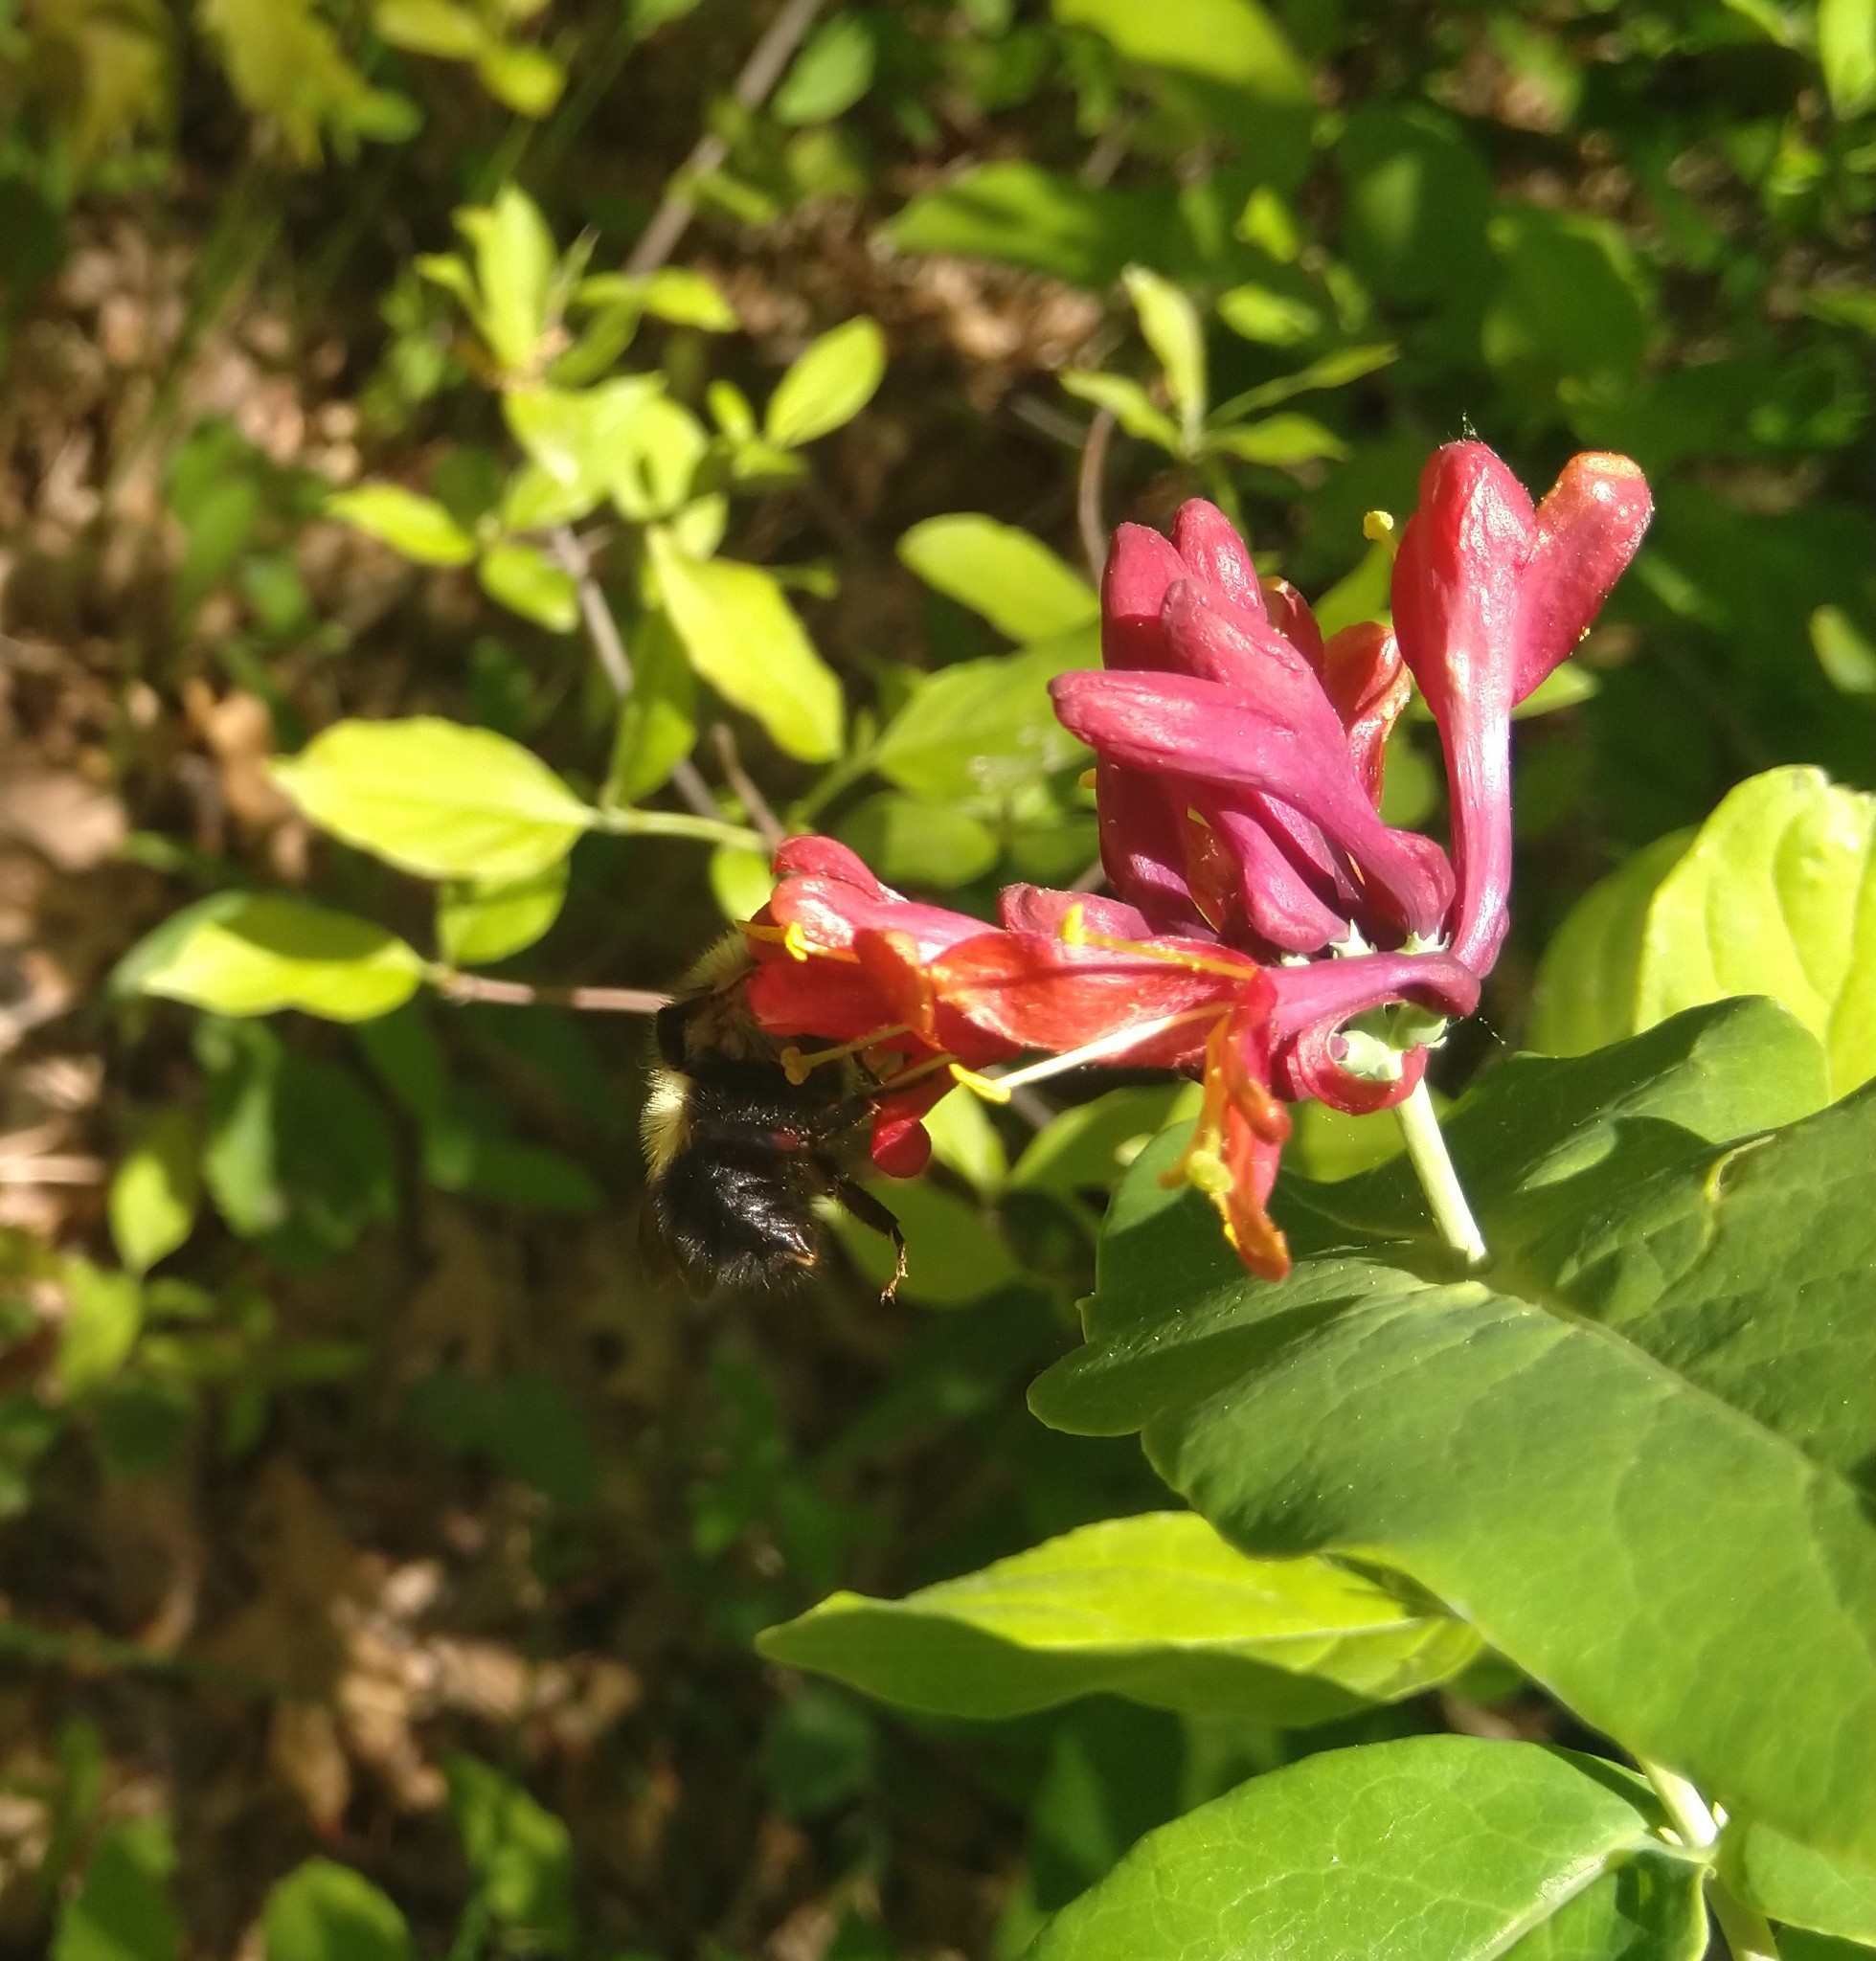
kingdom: Animalia
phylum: Arthropoda
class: Insecta
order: Hymenoptera
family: Apidae
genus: Pyrobombus
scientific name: Pyrobombus
